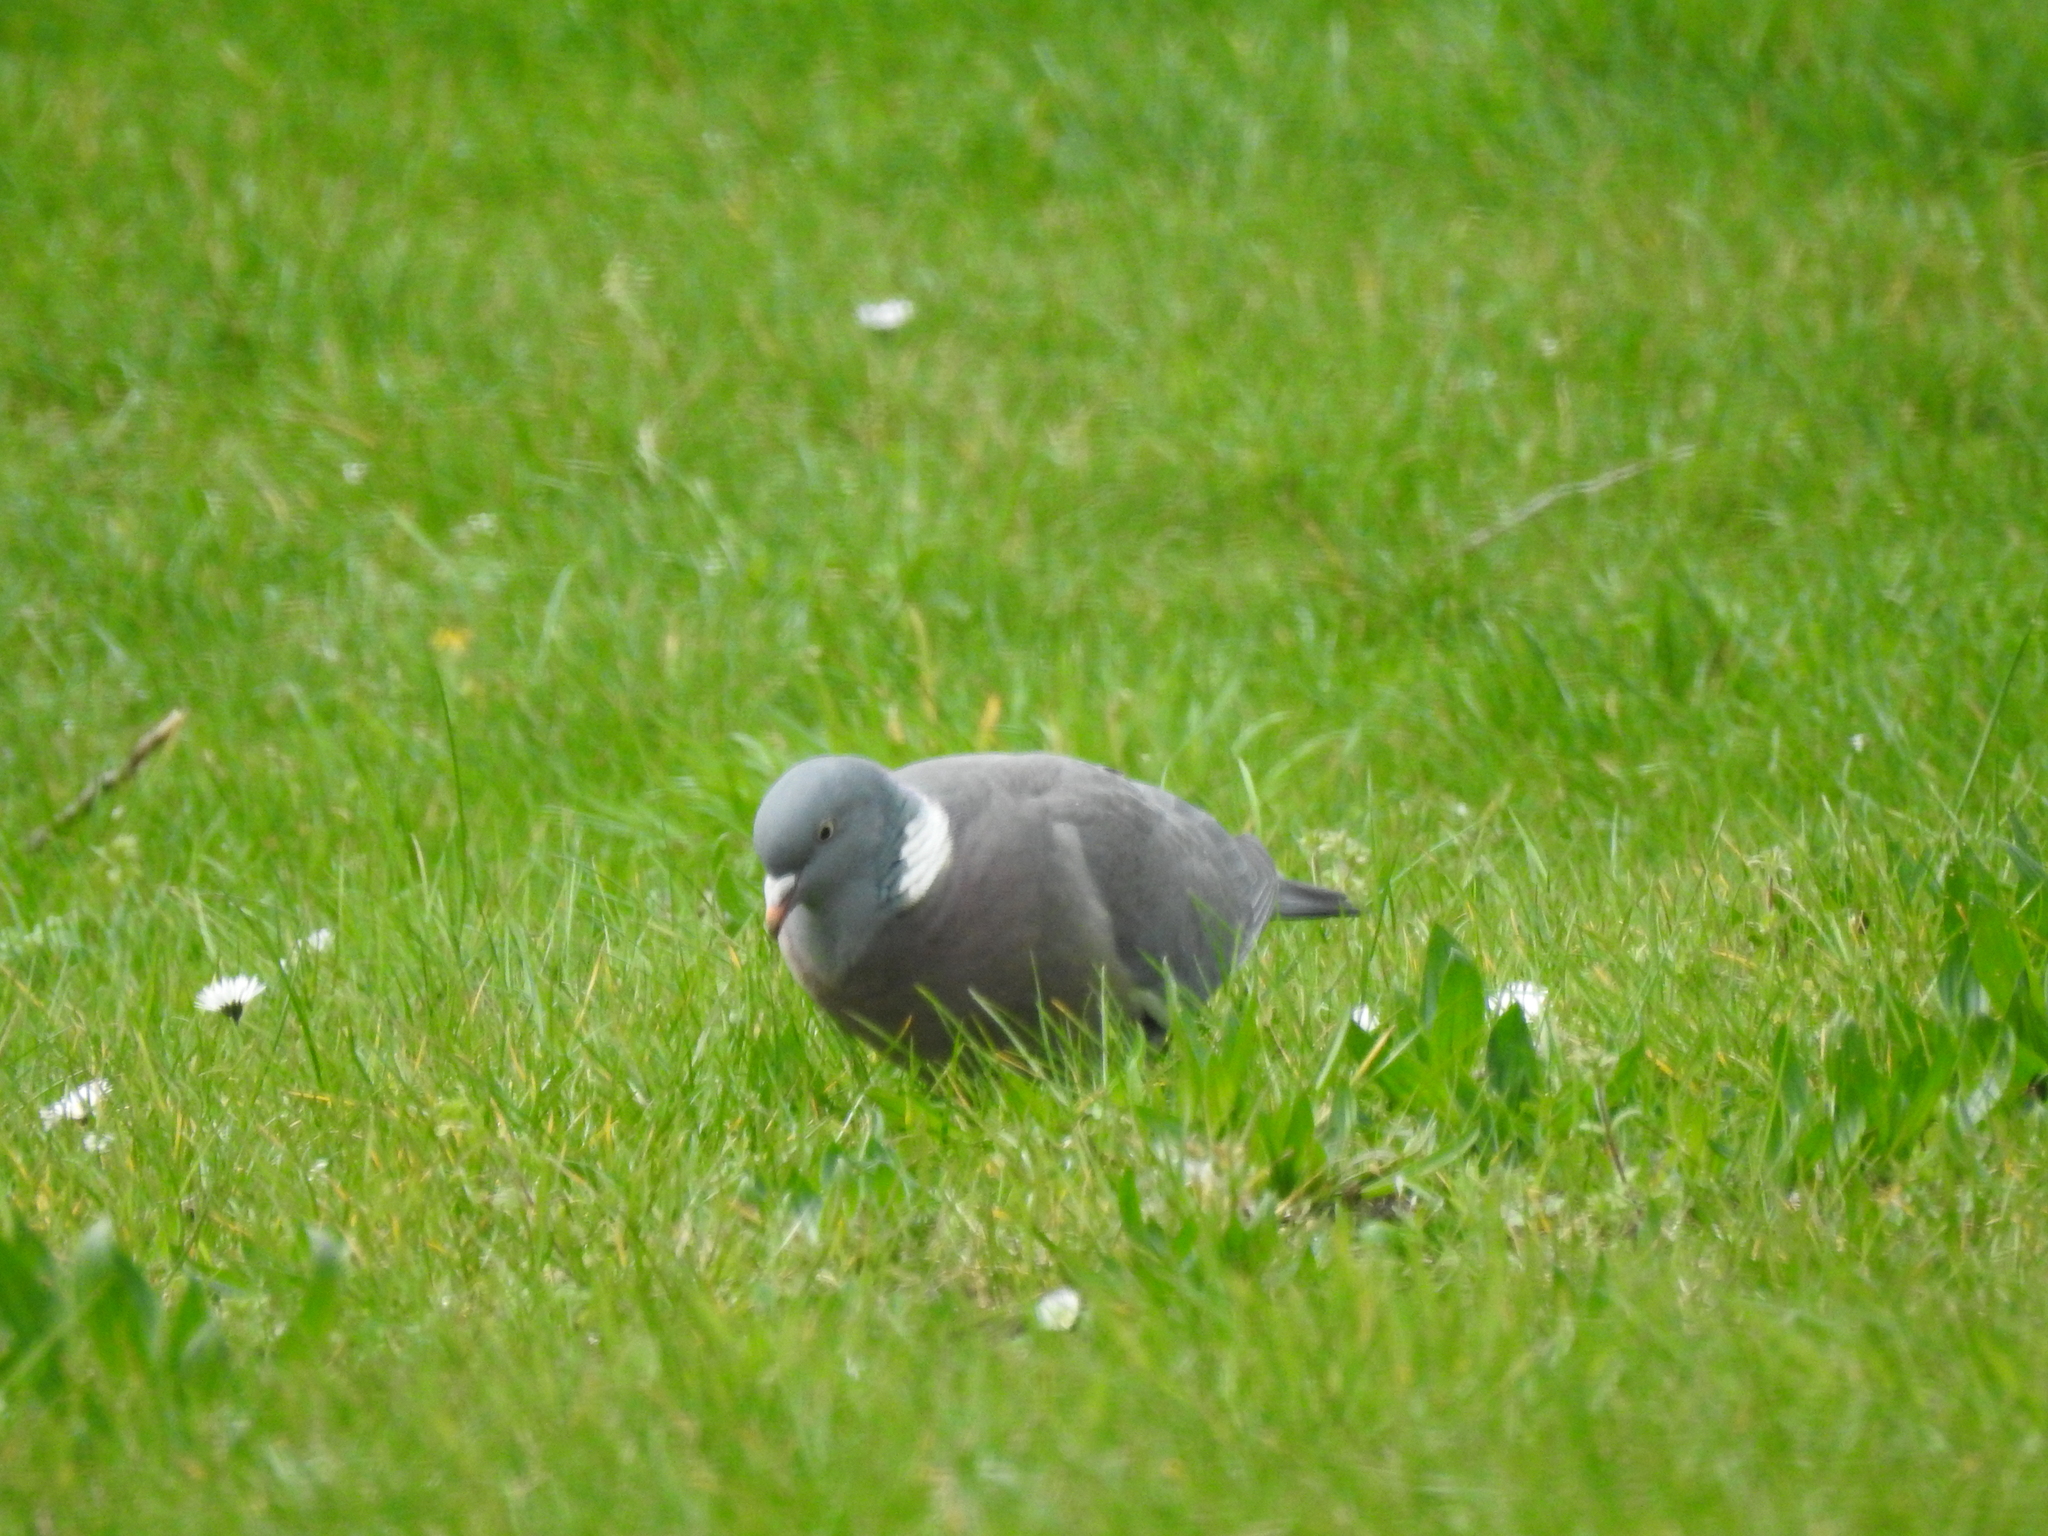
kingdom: Animalia
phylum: Chordata
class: Aves
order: Columbiformes
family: Columbidae
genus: Columba
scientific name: Columba palumbus
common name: Common wood pigeon
